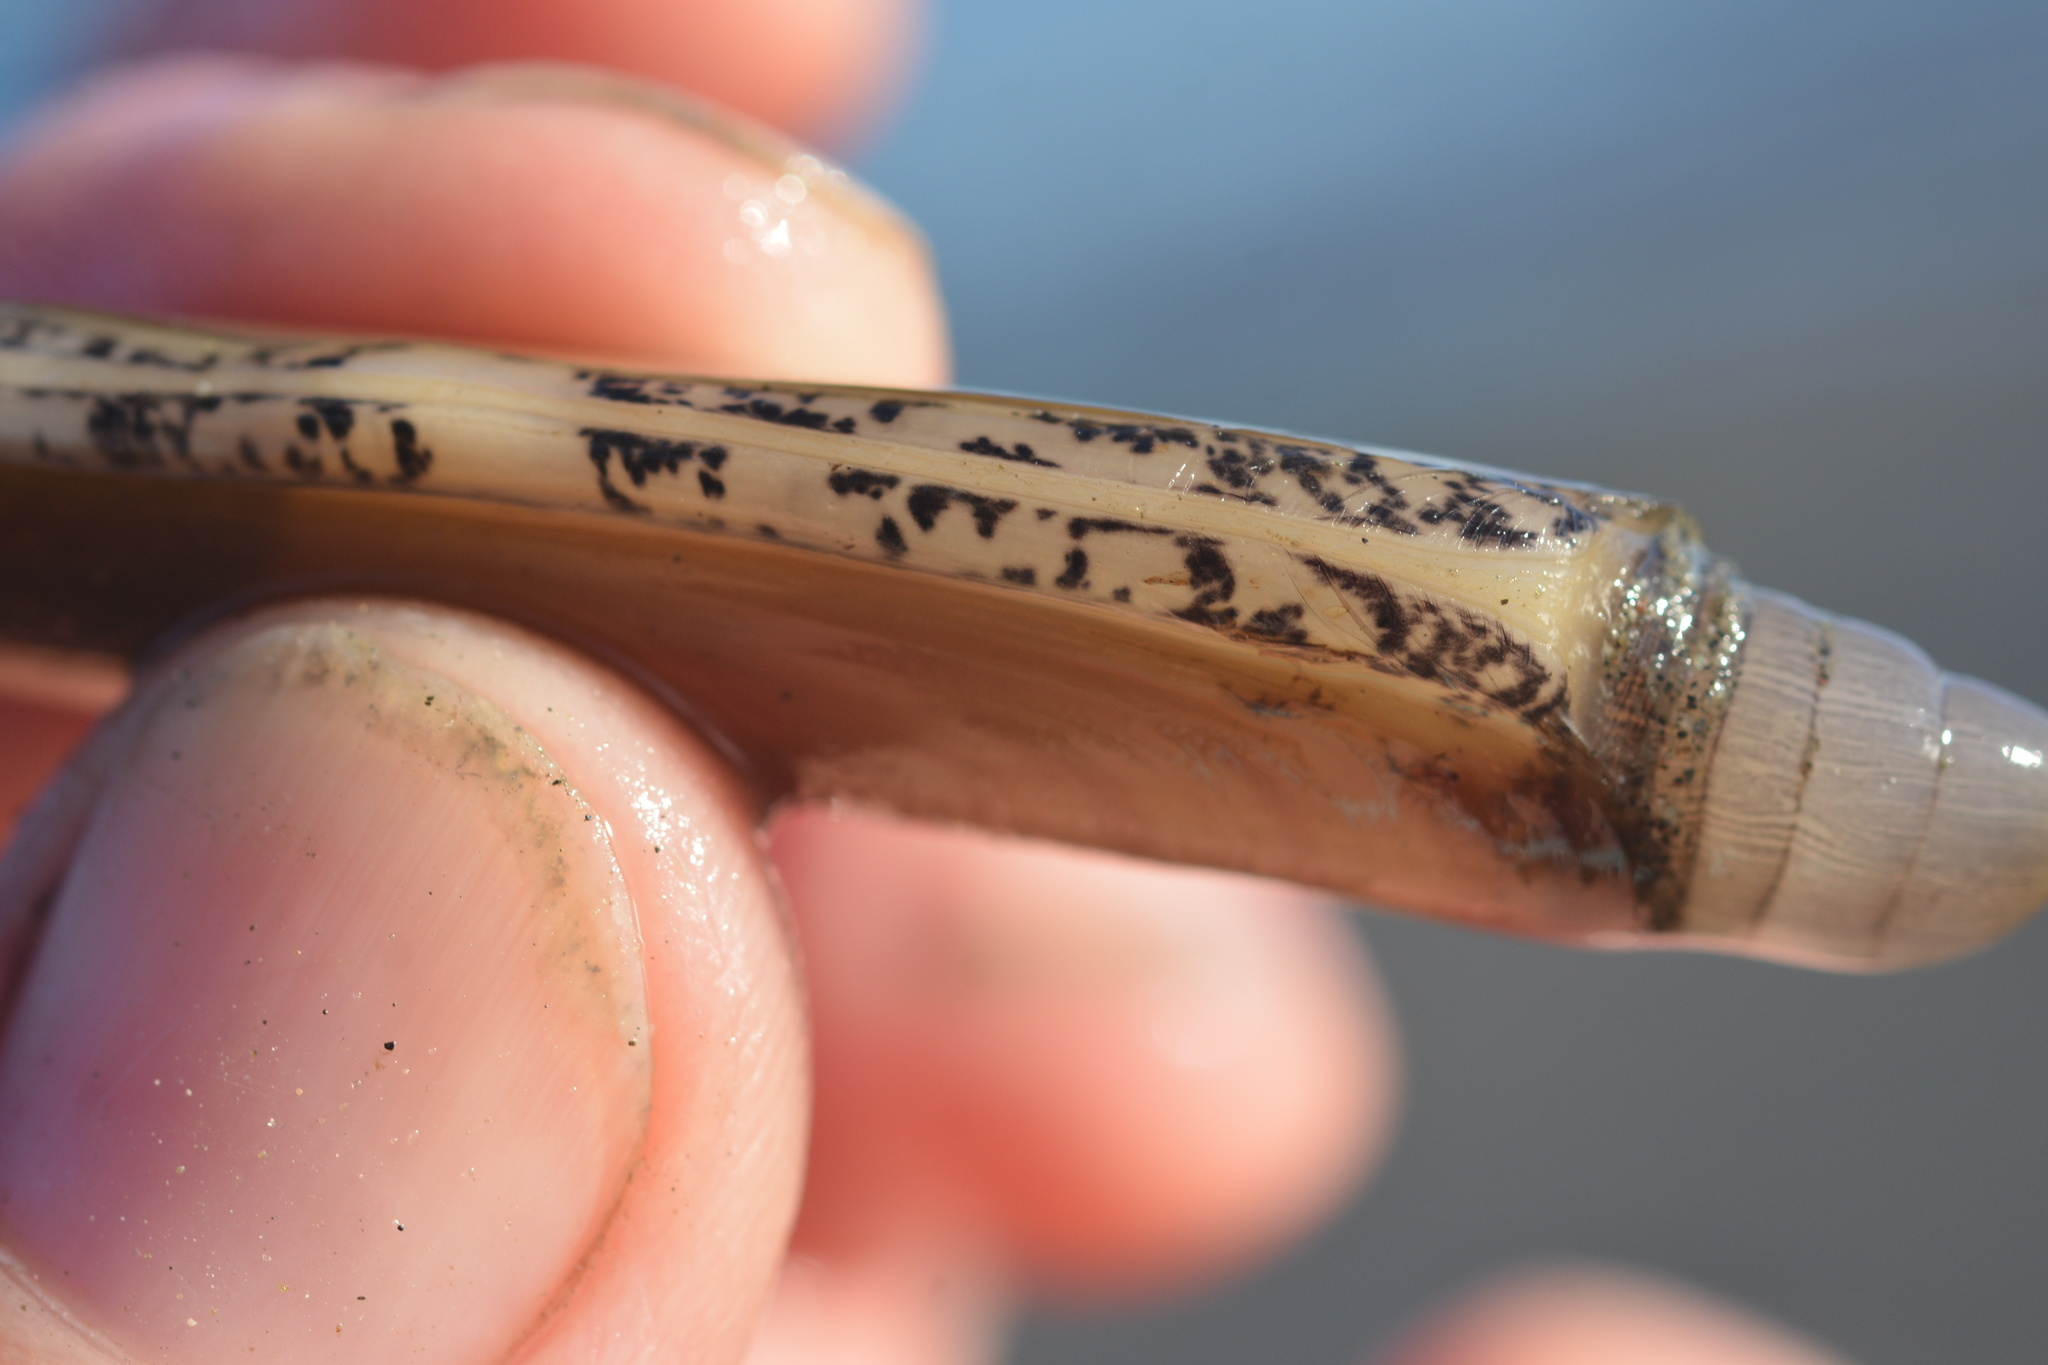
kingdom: Animalia
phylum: Mollusca
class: Bivalvia
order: Adapedonta
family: Solenidae
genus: Solen
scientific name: Solen sicarius
